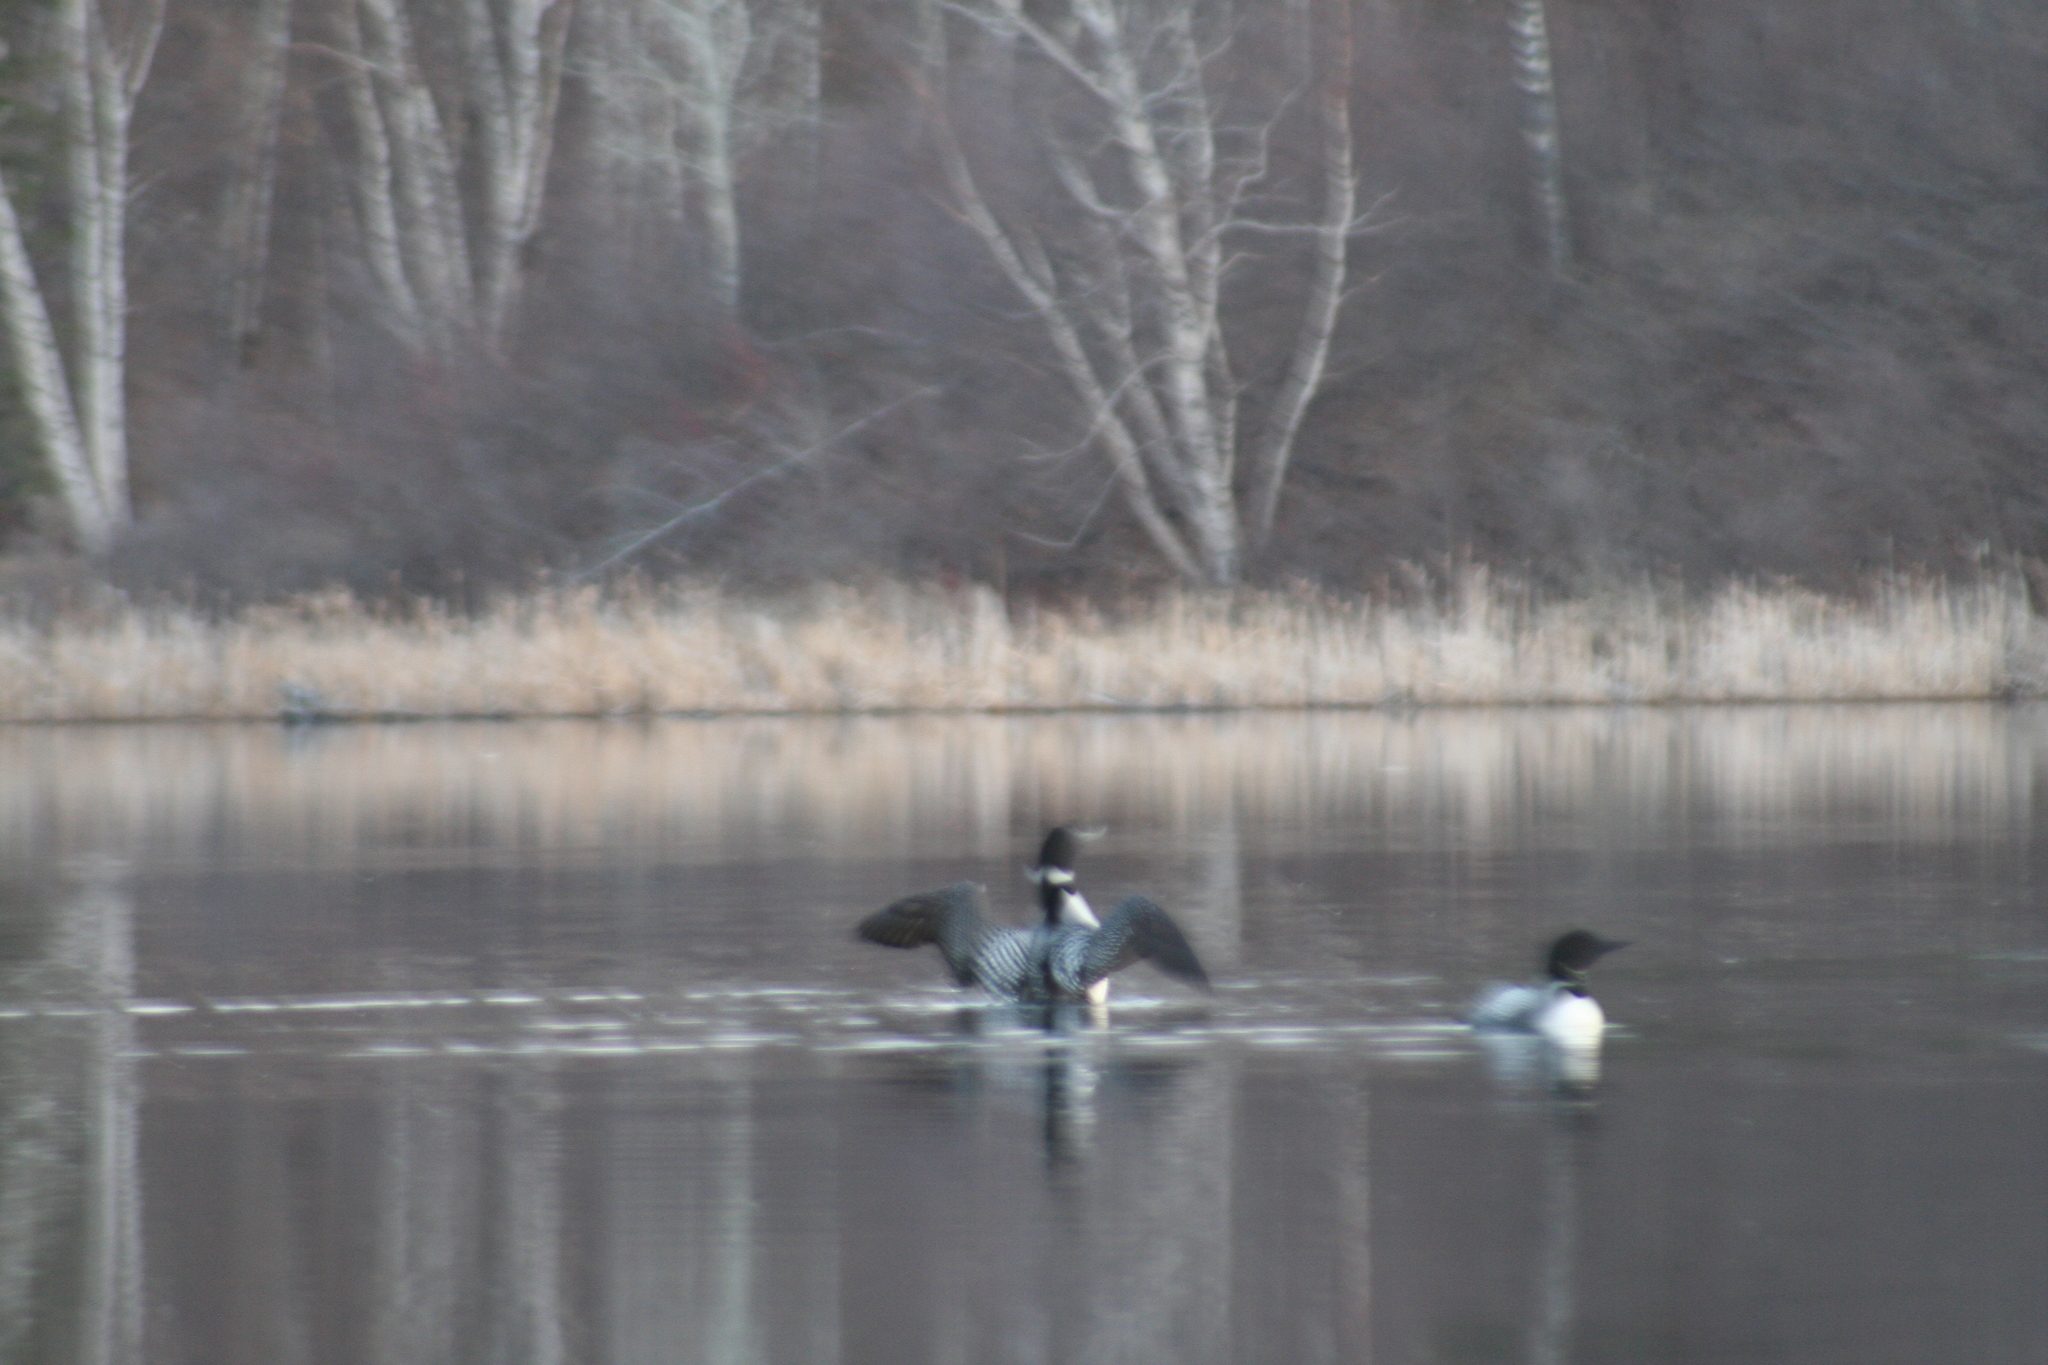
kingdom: Animalia
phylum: Chordata
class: Aves
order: Gaviiformes
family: Gaviidae
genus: Gavia
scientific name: Gavia immer
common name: Common loon
